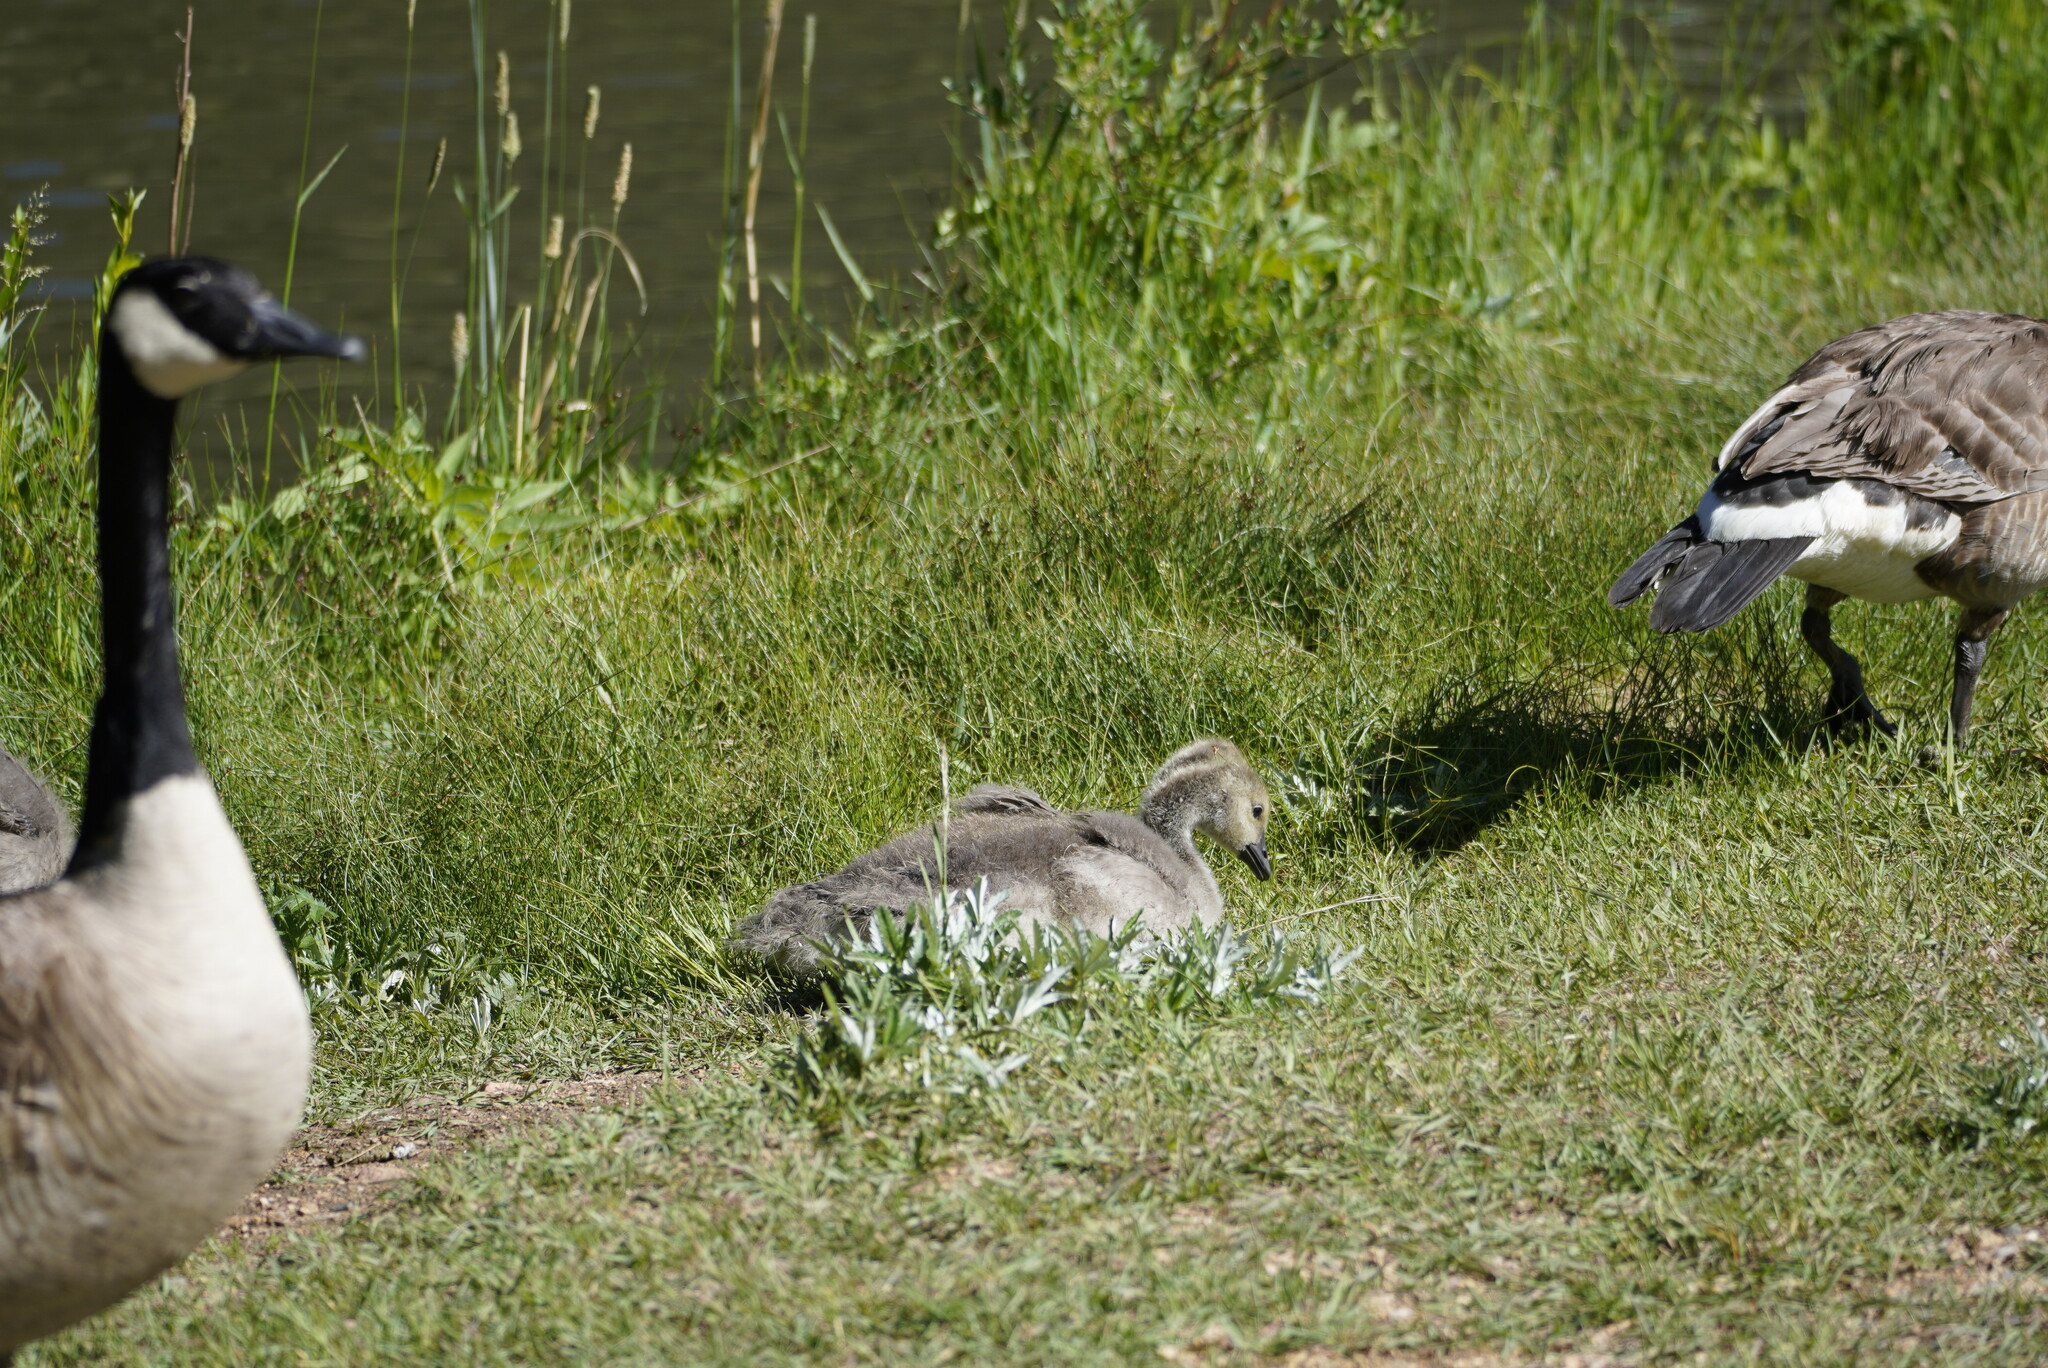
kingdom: Animalia
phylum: Chordata
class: Aves
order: Anseriformes
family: Anatidae
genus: Branta
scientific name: Branta canadensis
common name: Canada goose
